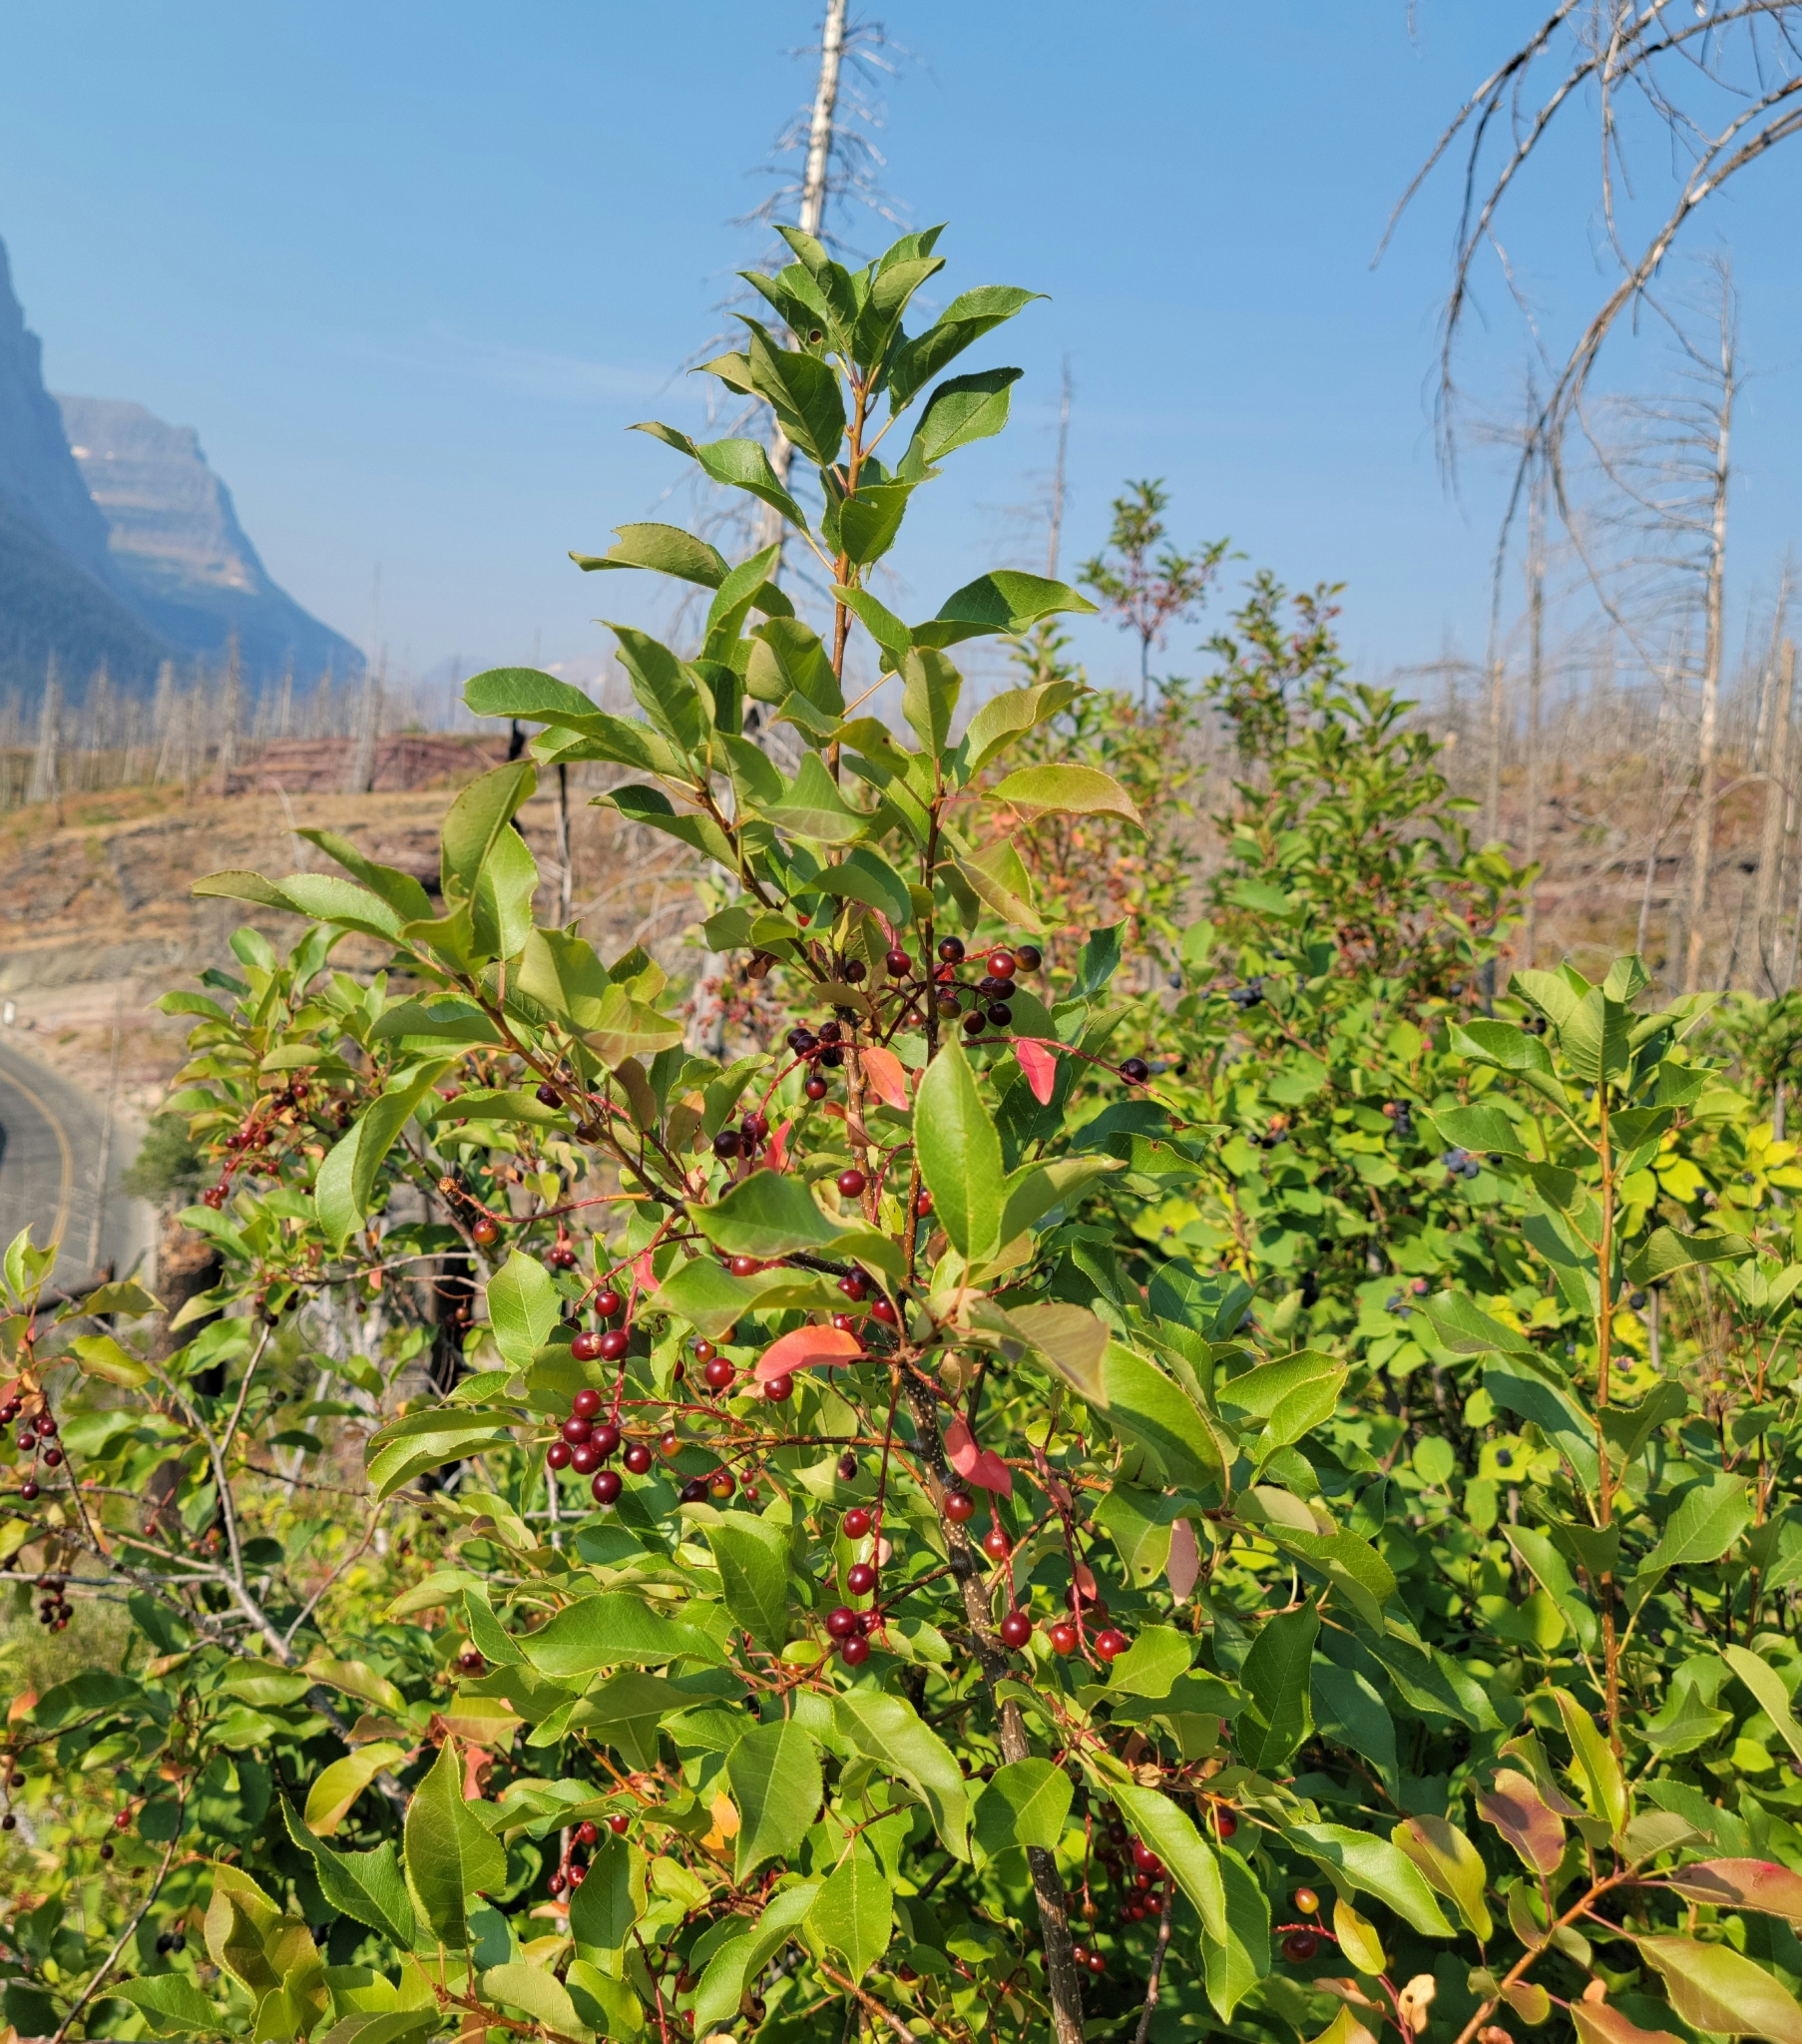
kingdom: Plantae
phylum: Tracheophyta
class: Magnoliopsida
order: Rosales
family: Rosaceae
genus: Prunus
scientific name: Prunus virginiana
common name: Chokecherry
